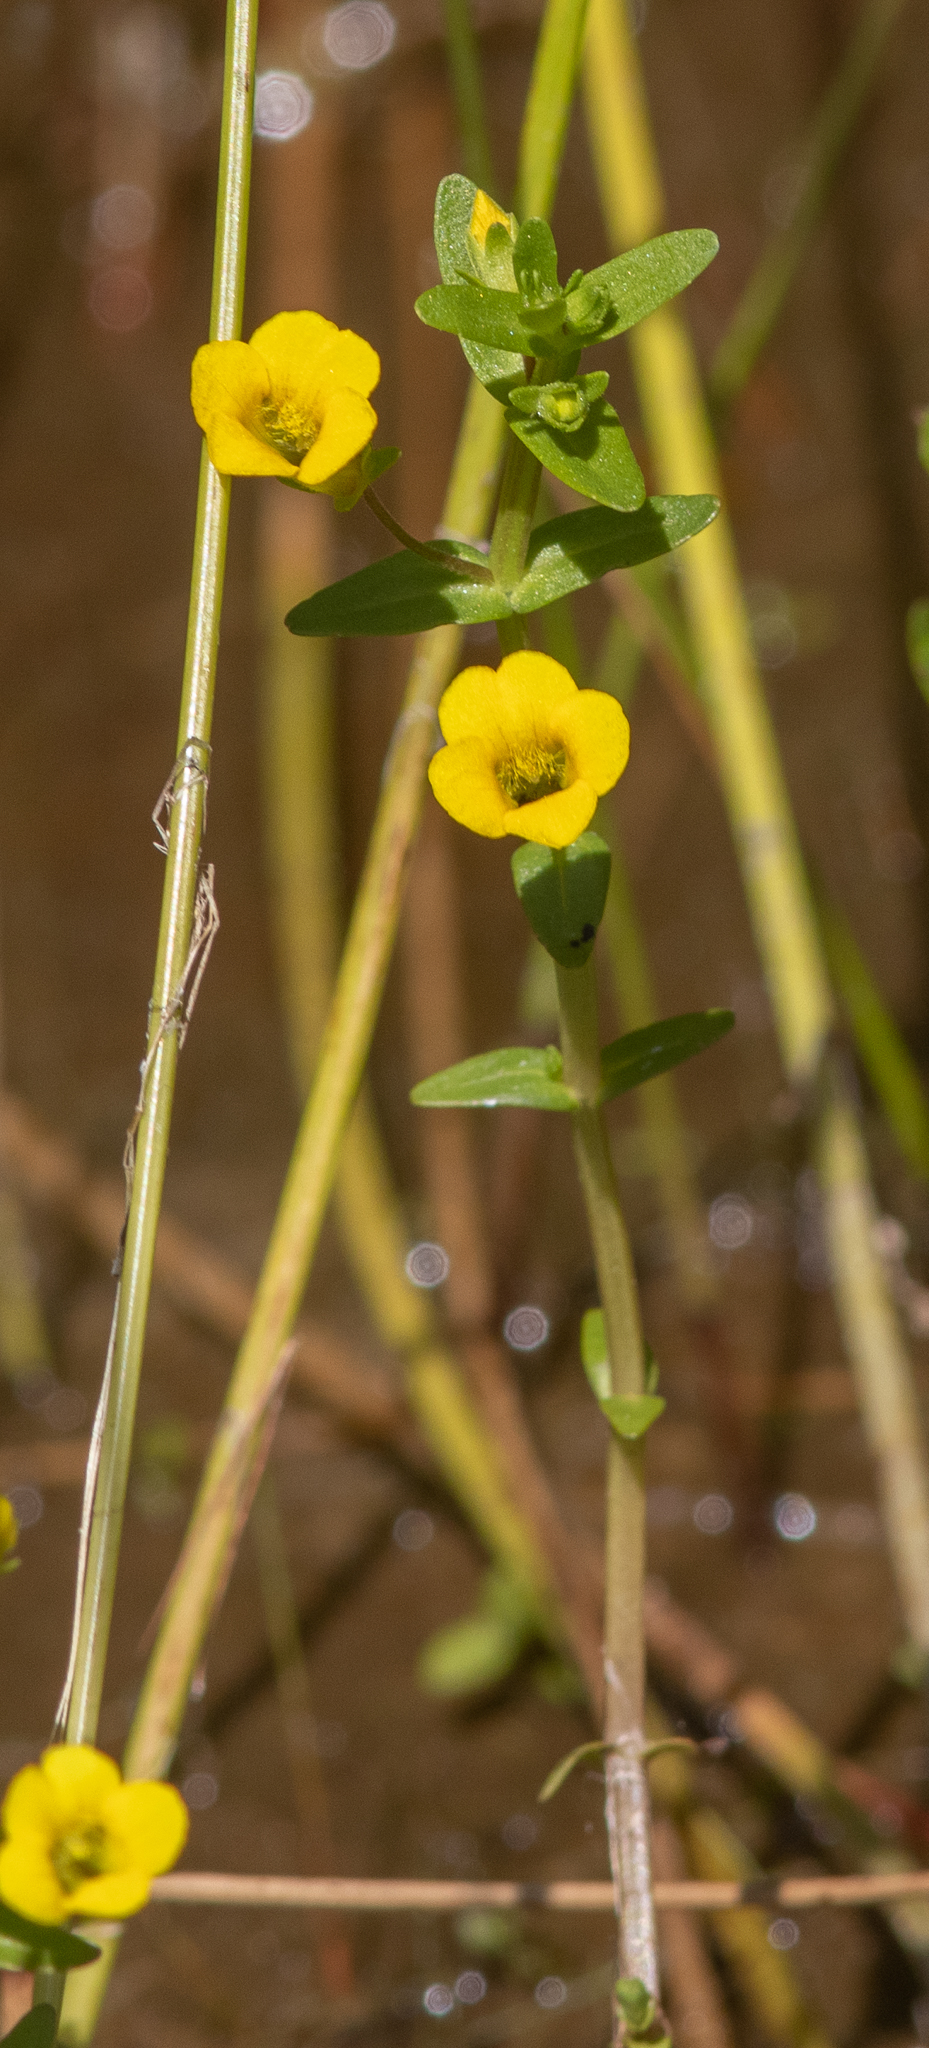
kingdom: Plantae
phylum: Tracheophyta
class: Magnoliopsida
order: Lamiales
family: Plantaginaceae
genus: Gratiola
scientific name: Gratiola lutea
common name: Golden hedge-hyssop
